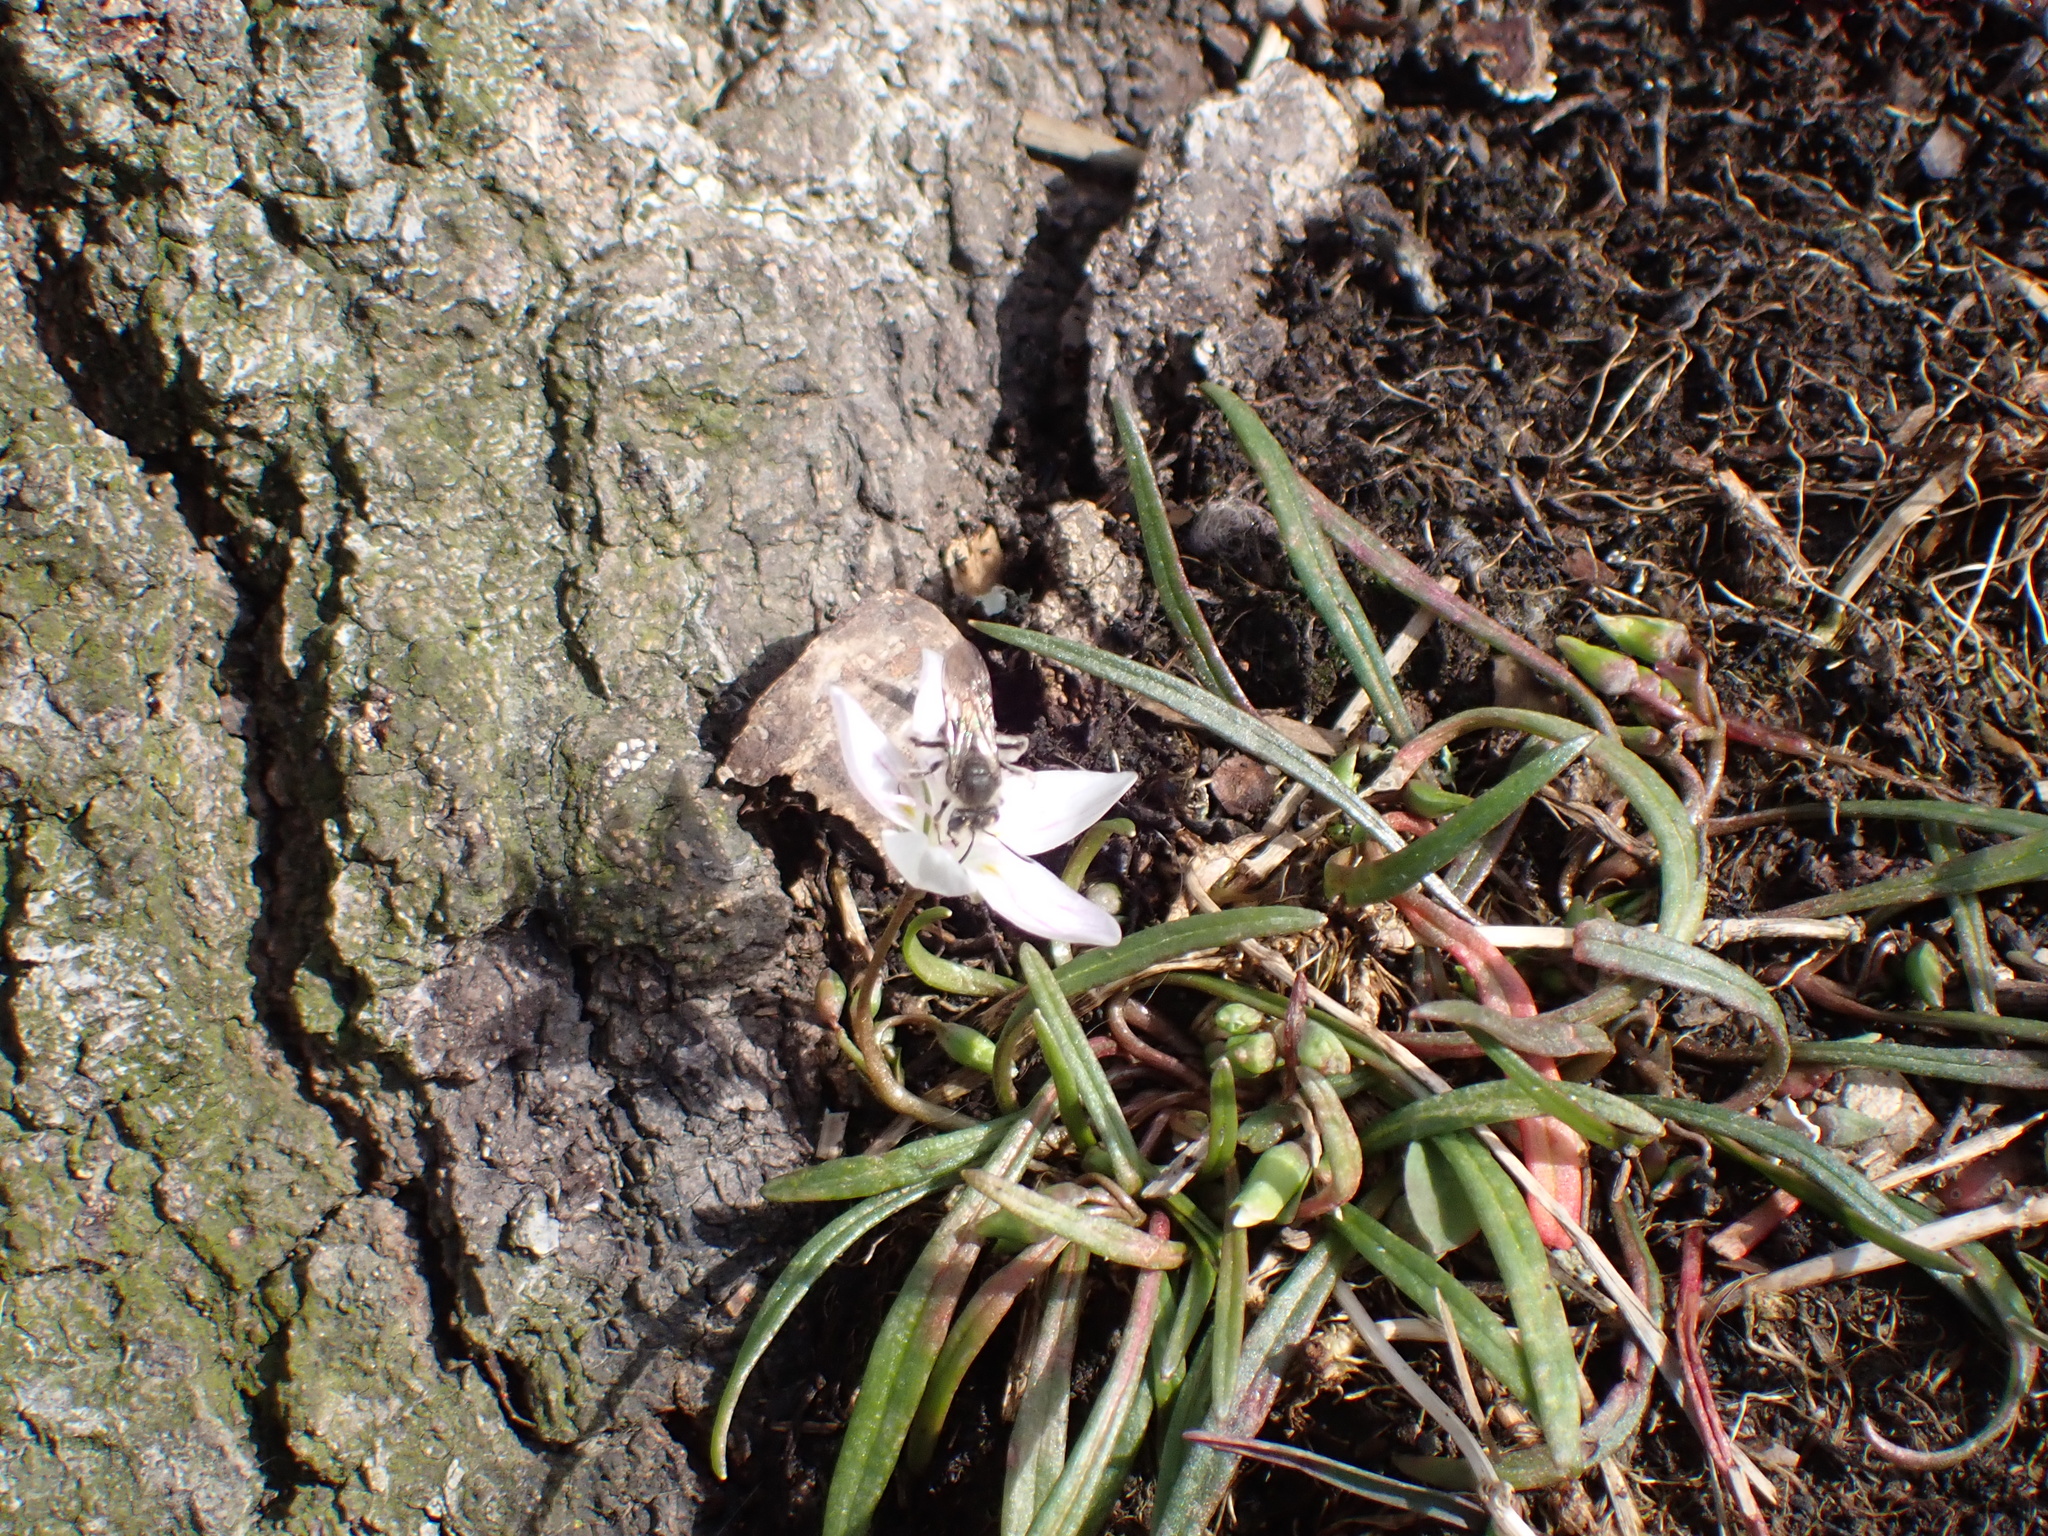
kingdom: Plantae
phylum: Tracheophyta
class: Magnoliopsida
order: Caryophyllales
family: Montiaceae
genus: Claytonia
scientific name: Claytonia virginica
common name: Virginia springbeauty
